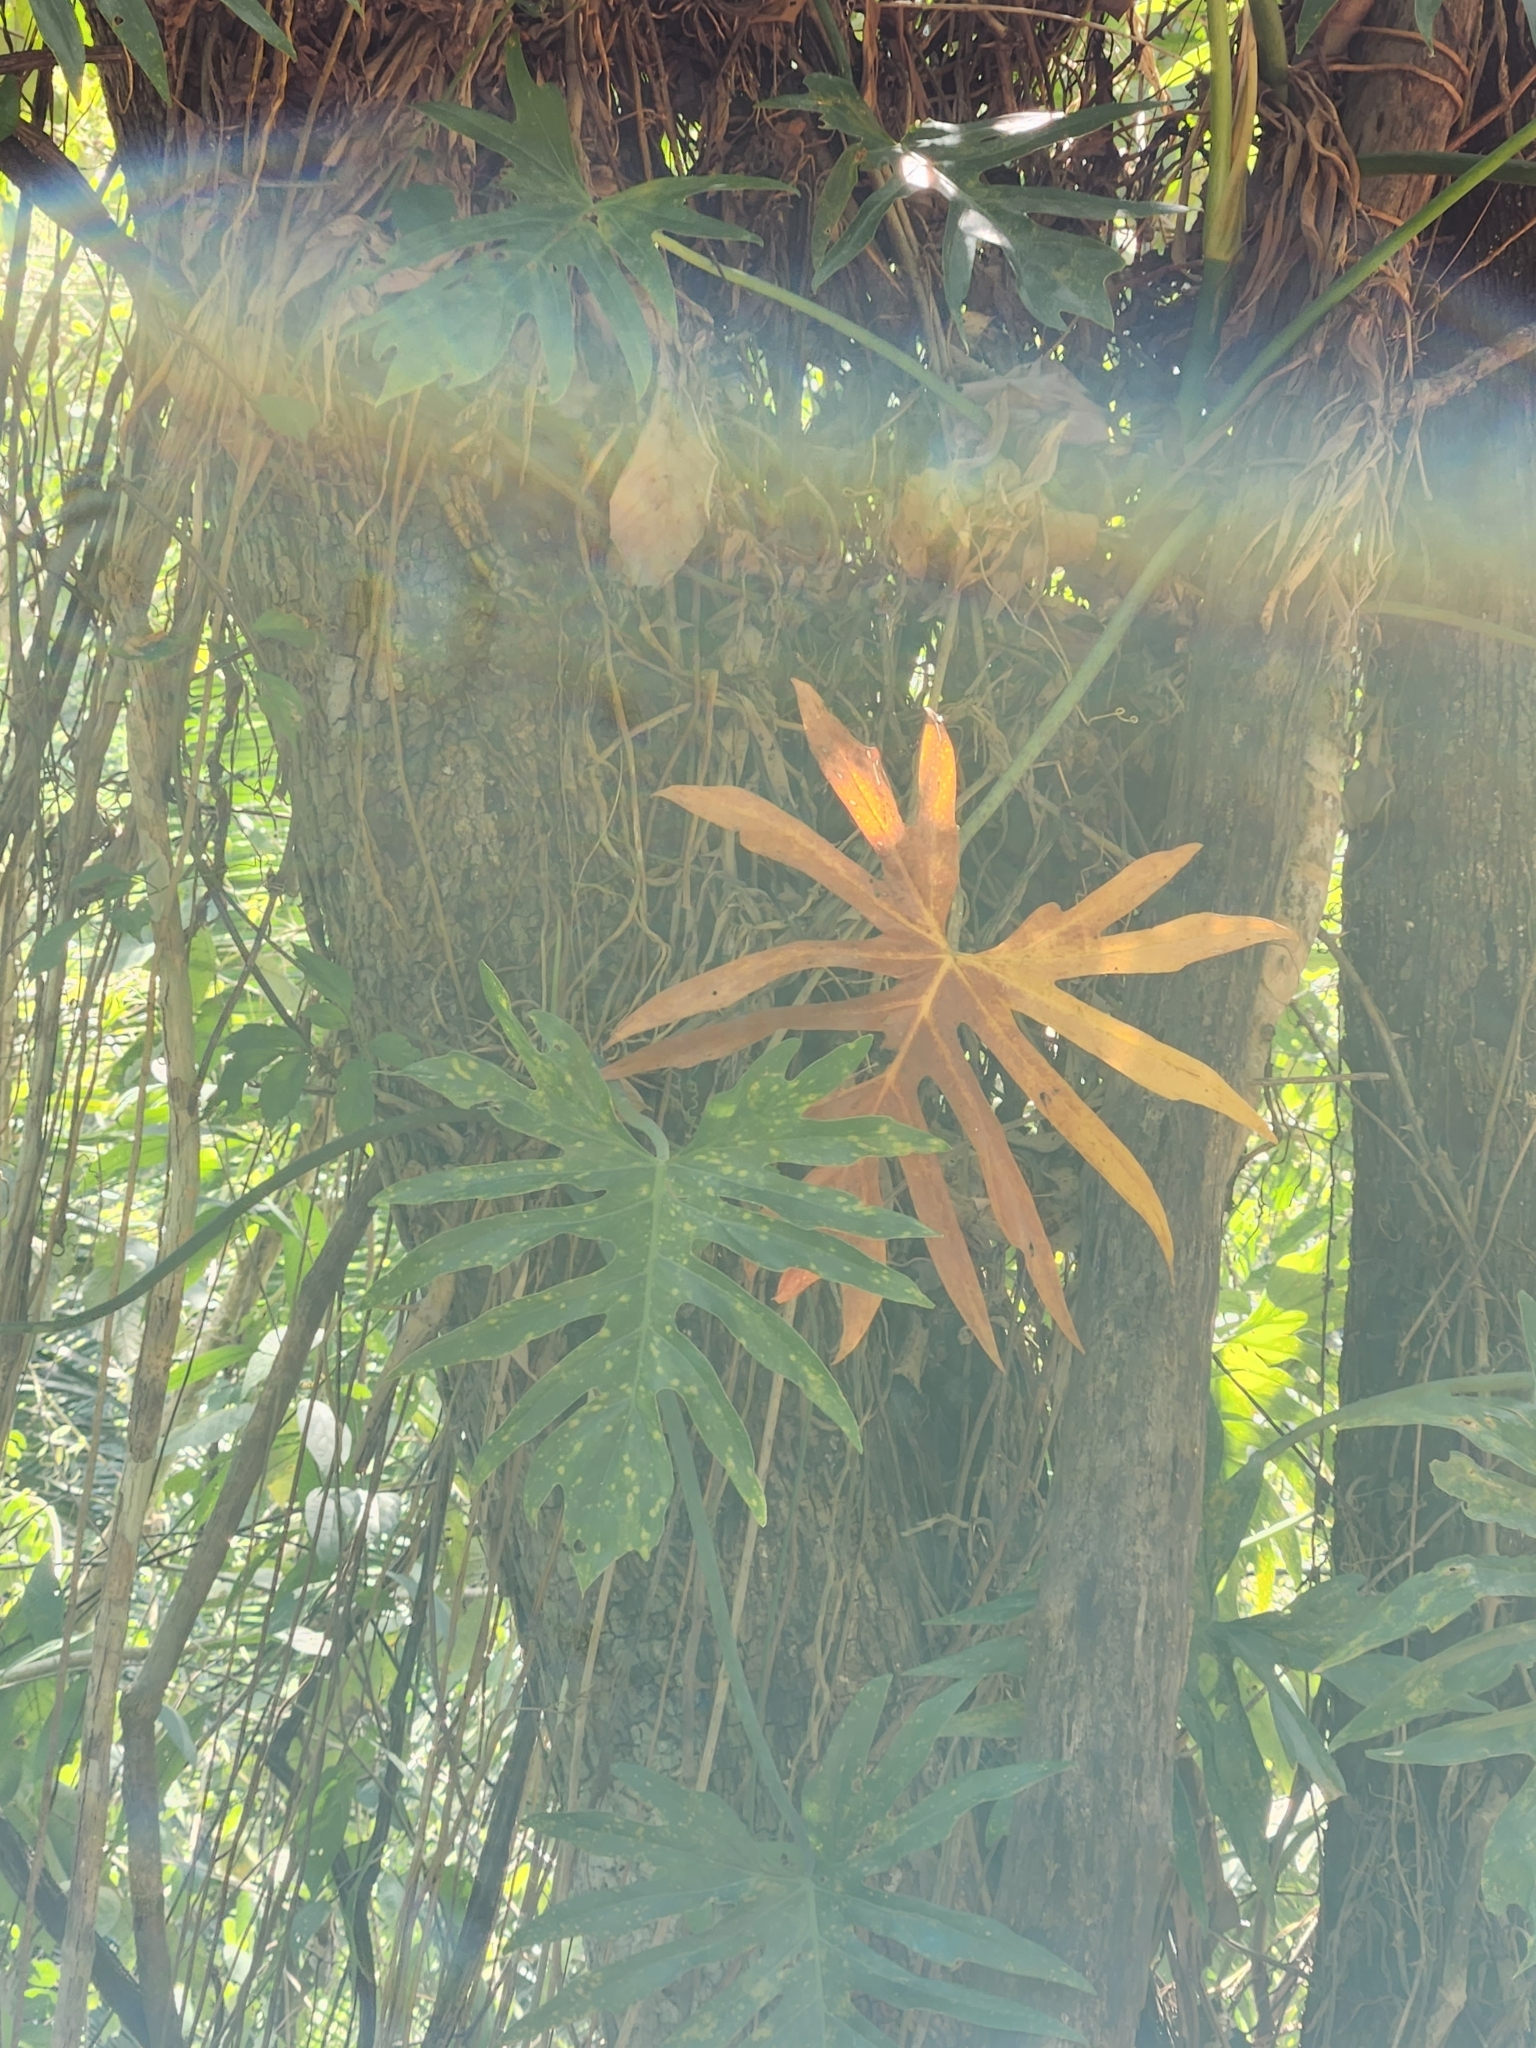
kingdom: Plantae
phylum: Tracheophyta
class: Liliopsida
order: Alismatales
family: Araceae
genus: Philodendron
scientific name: Philodendron radiatum
